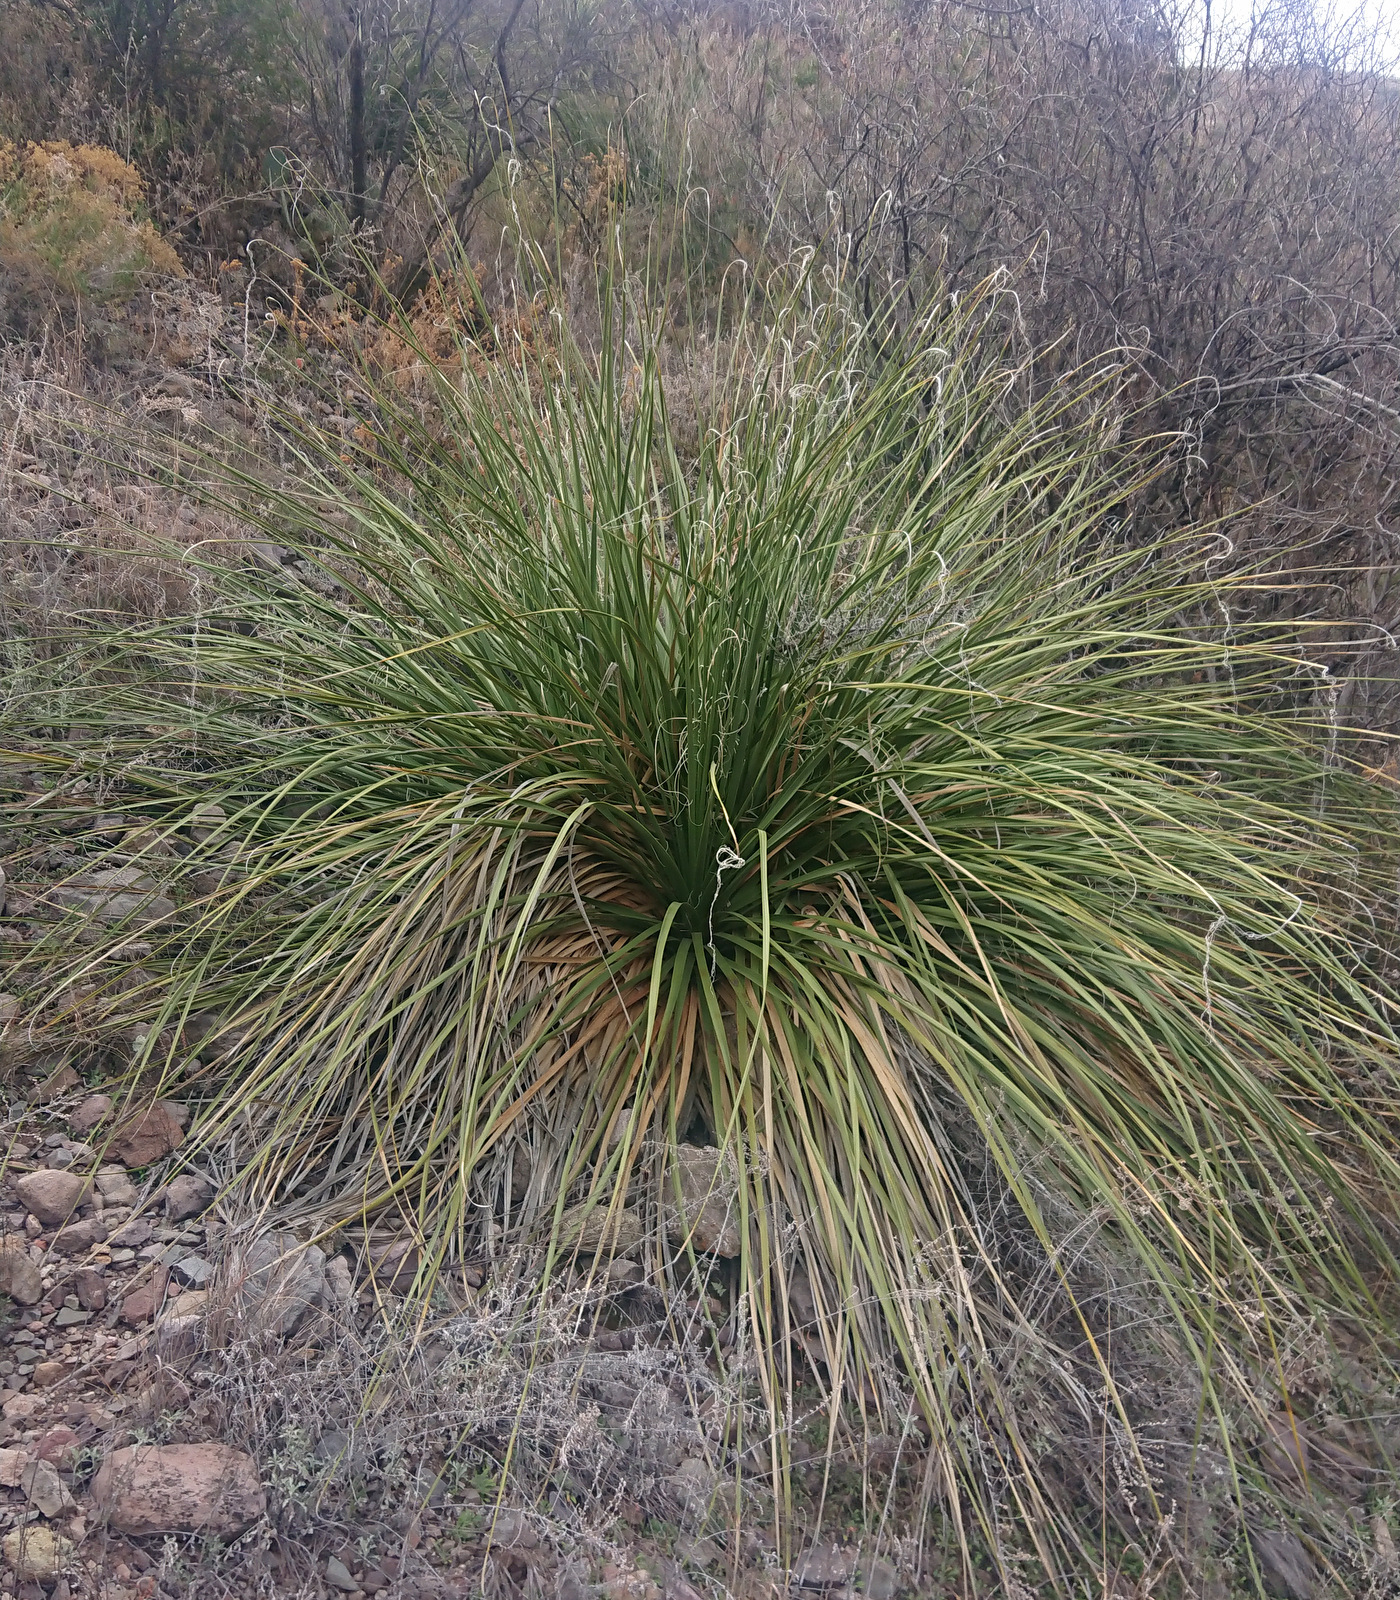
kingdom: Plantae
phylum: Tracheophyta
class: Liliopsida
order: Asparagales
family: Asparagaceae
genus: Nolina
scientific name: Nolina erumpens
